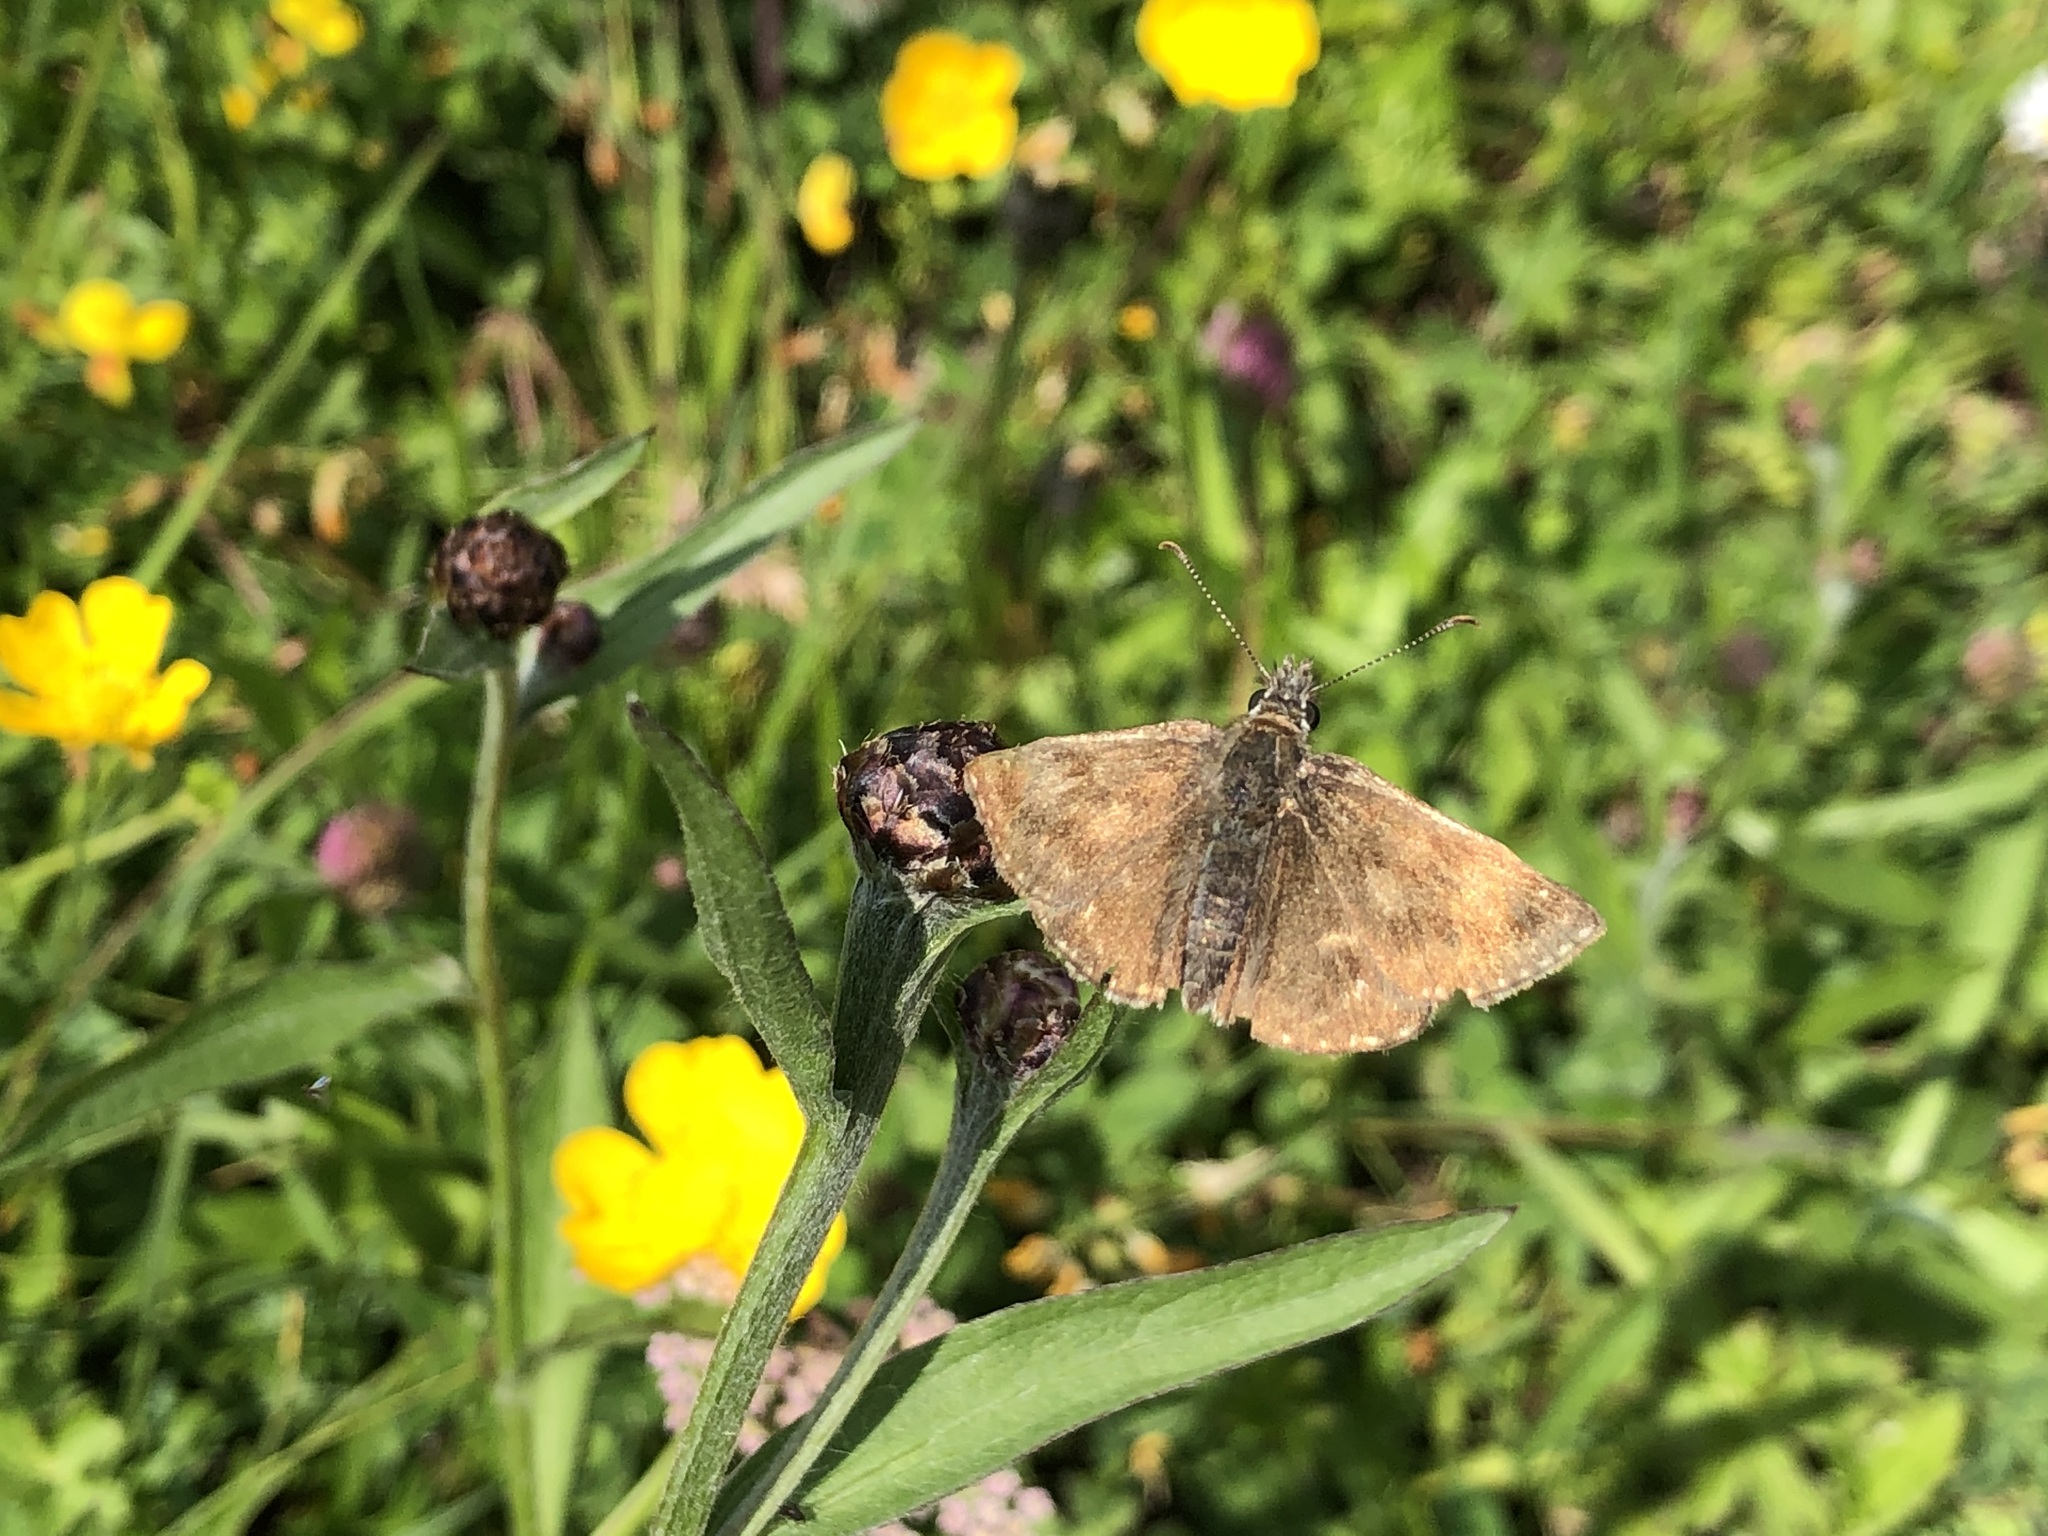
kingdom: Animalia
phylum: Arthropoda
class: Insecta
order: Lepidoptera
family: Hesperiidae
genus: Erynnis
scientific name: Erynnis tages
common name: Dingy skipper
